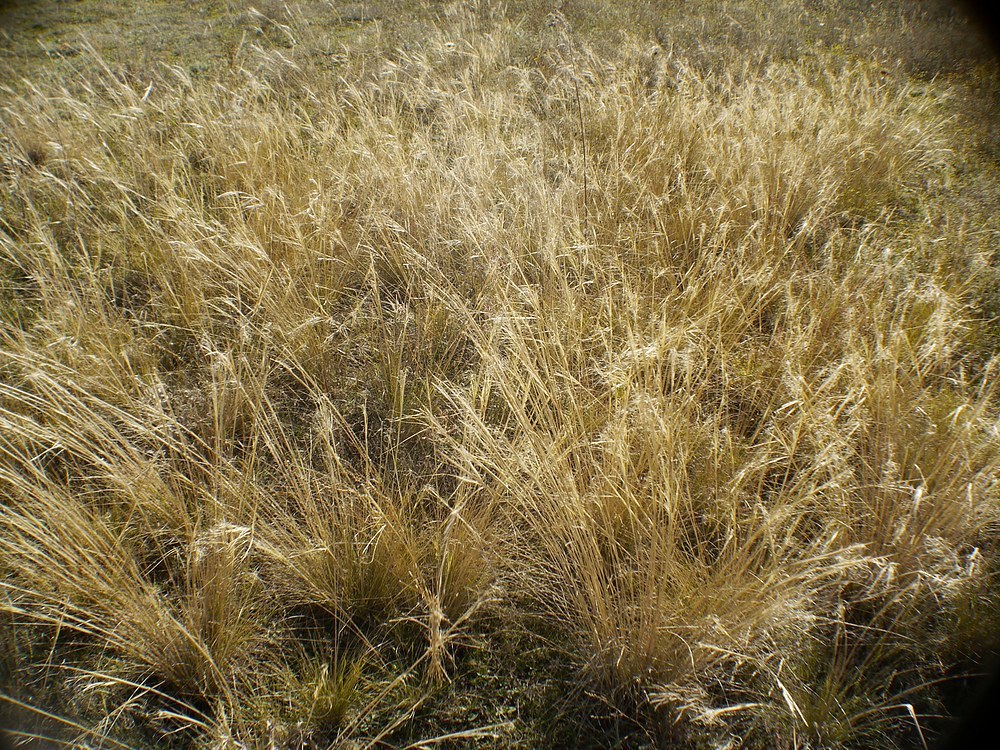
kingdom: Plantae
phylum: Tracheophyta
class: Liliopsida
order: Poales
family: Poaceae
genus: Stipa
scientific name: Stipa capillata
